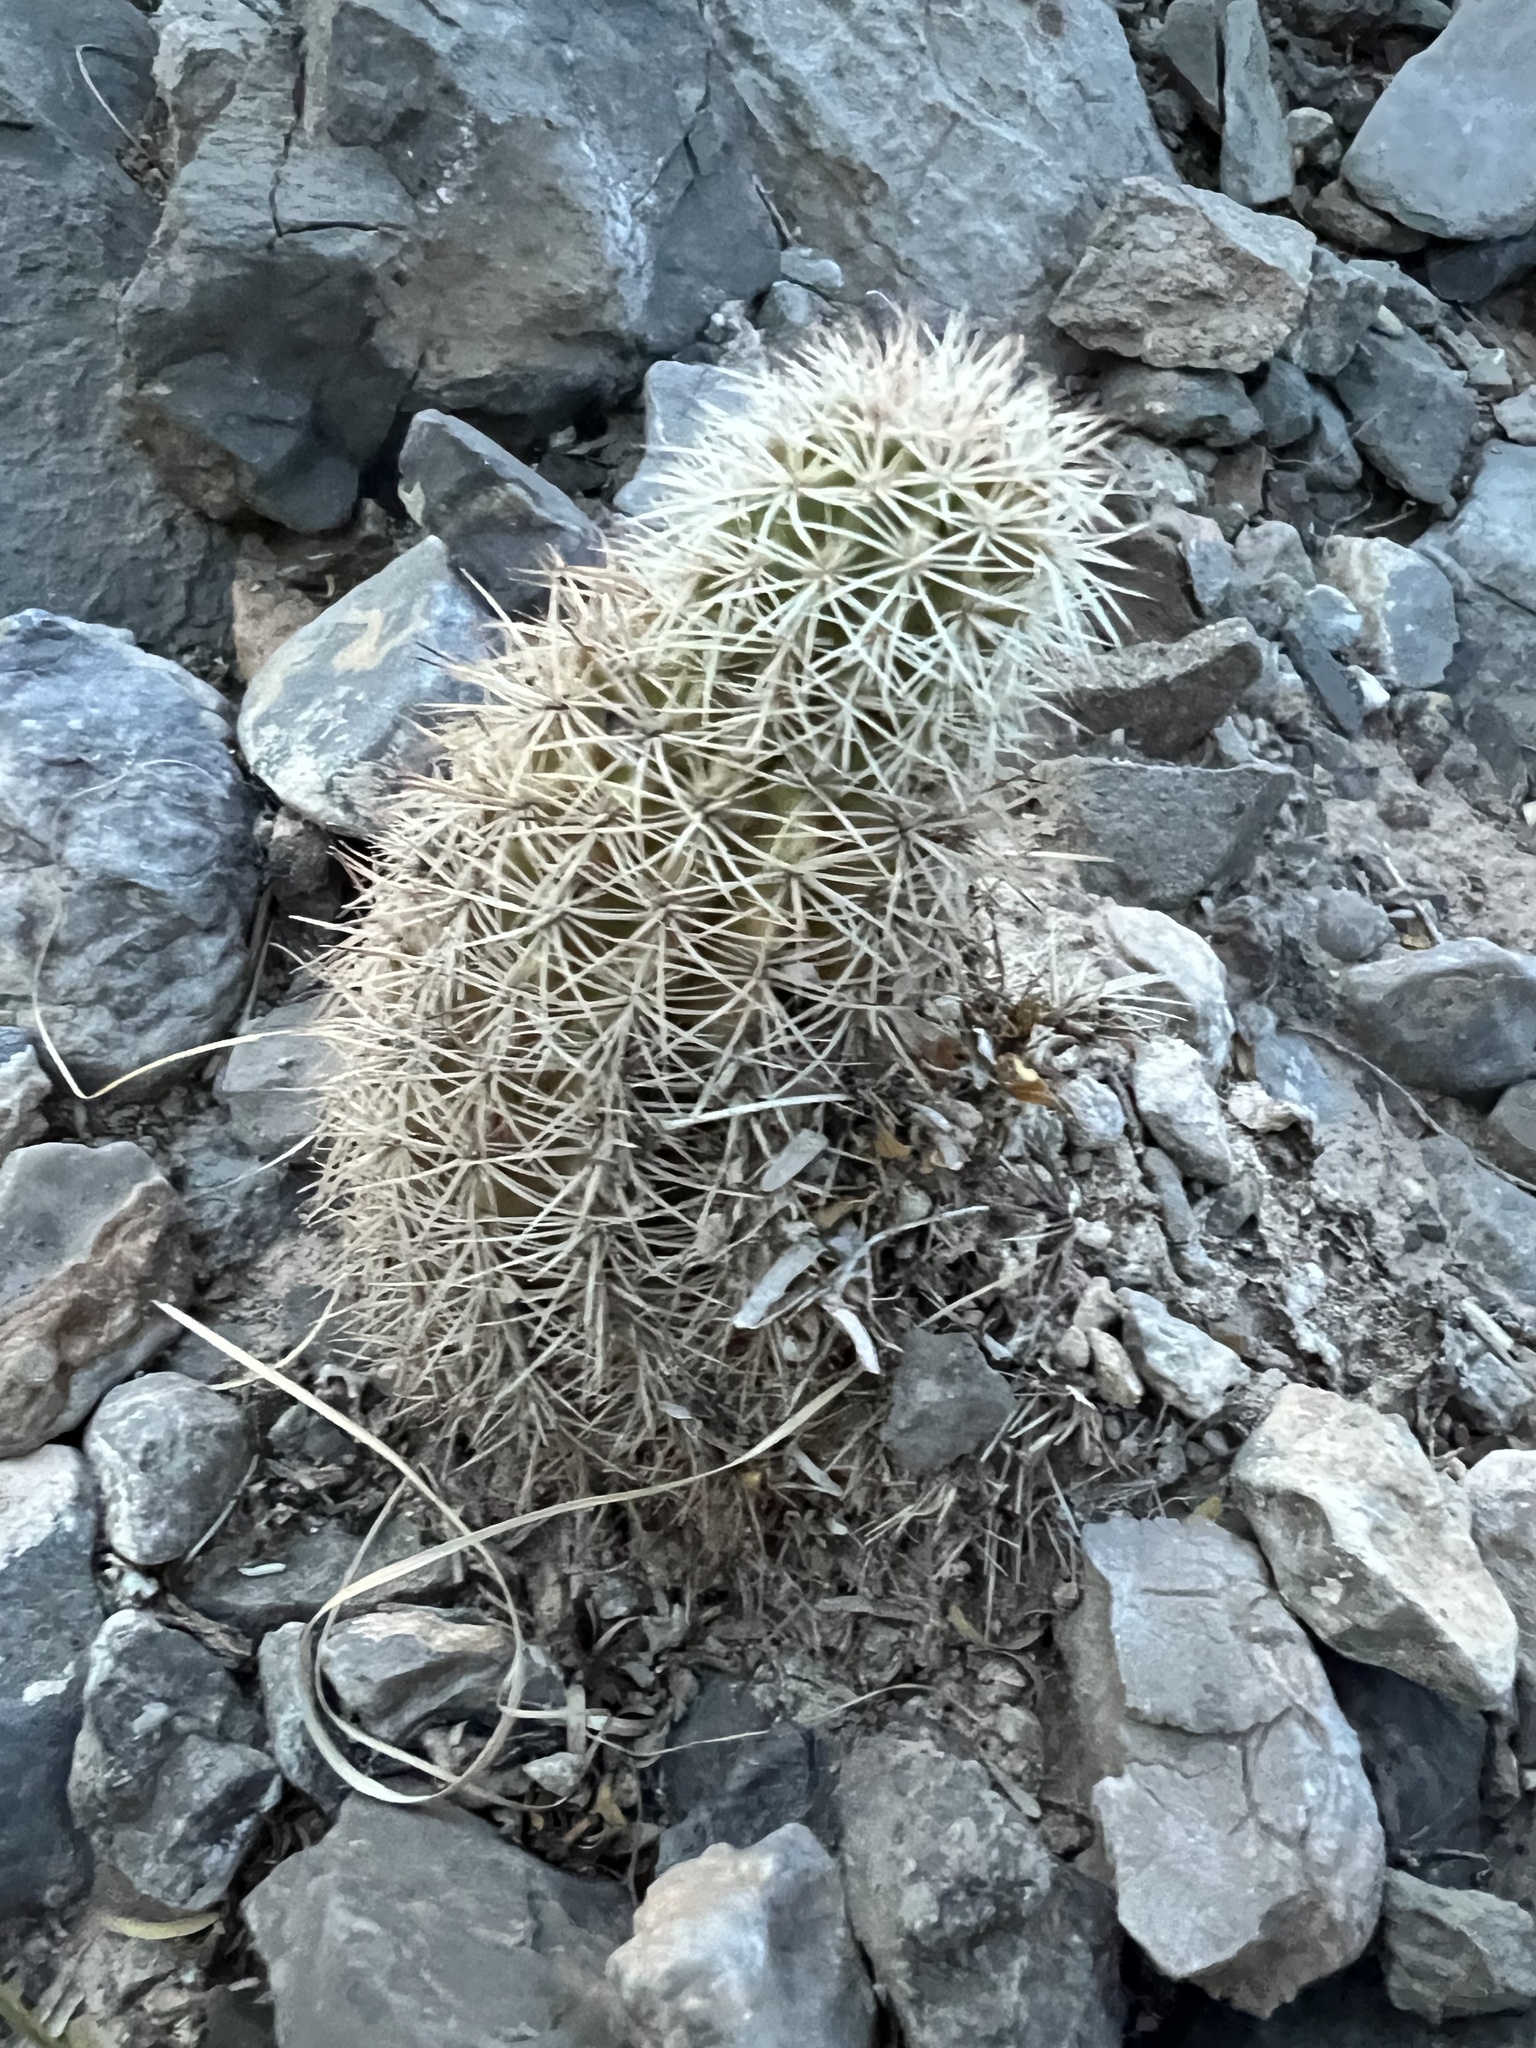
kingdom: Plantae
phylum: Tracheophyta
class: Magnoliopsida
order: Caryophyllales
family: Cactaceae
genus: Echinocereus
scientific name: Echinocereus roetteri
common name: Lloyd's hedgehog cactus
